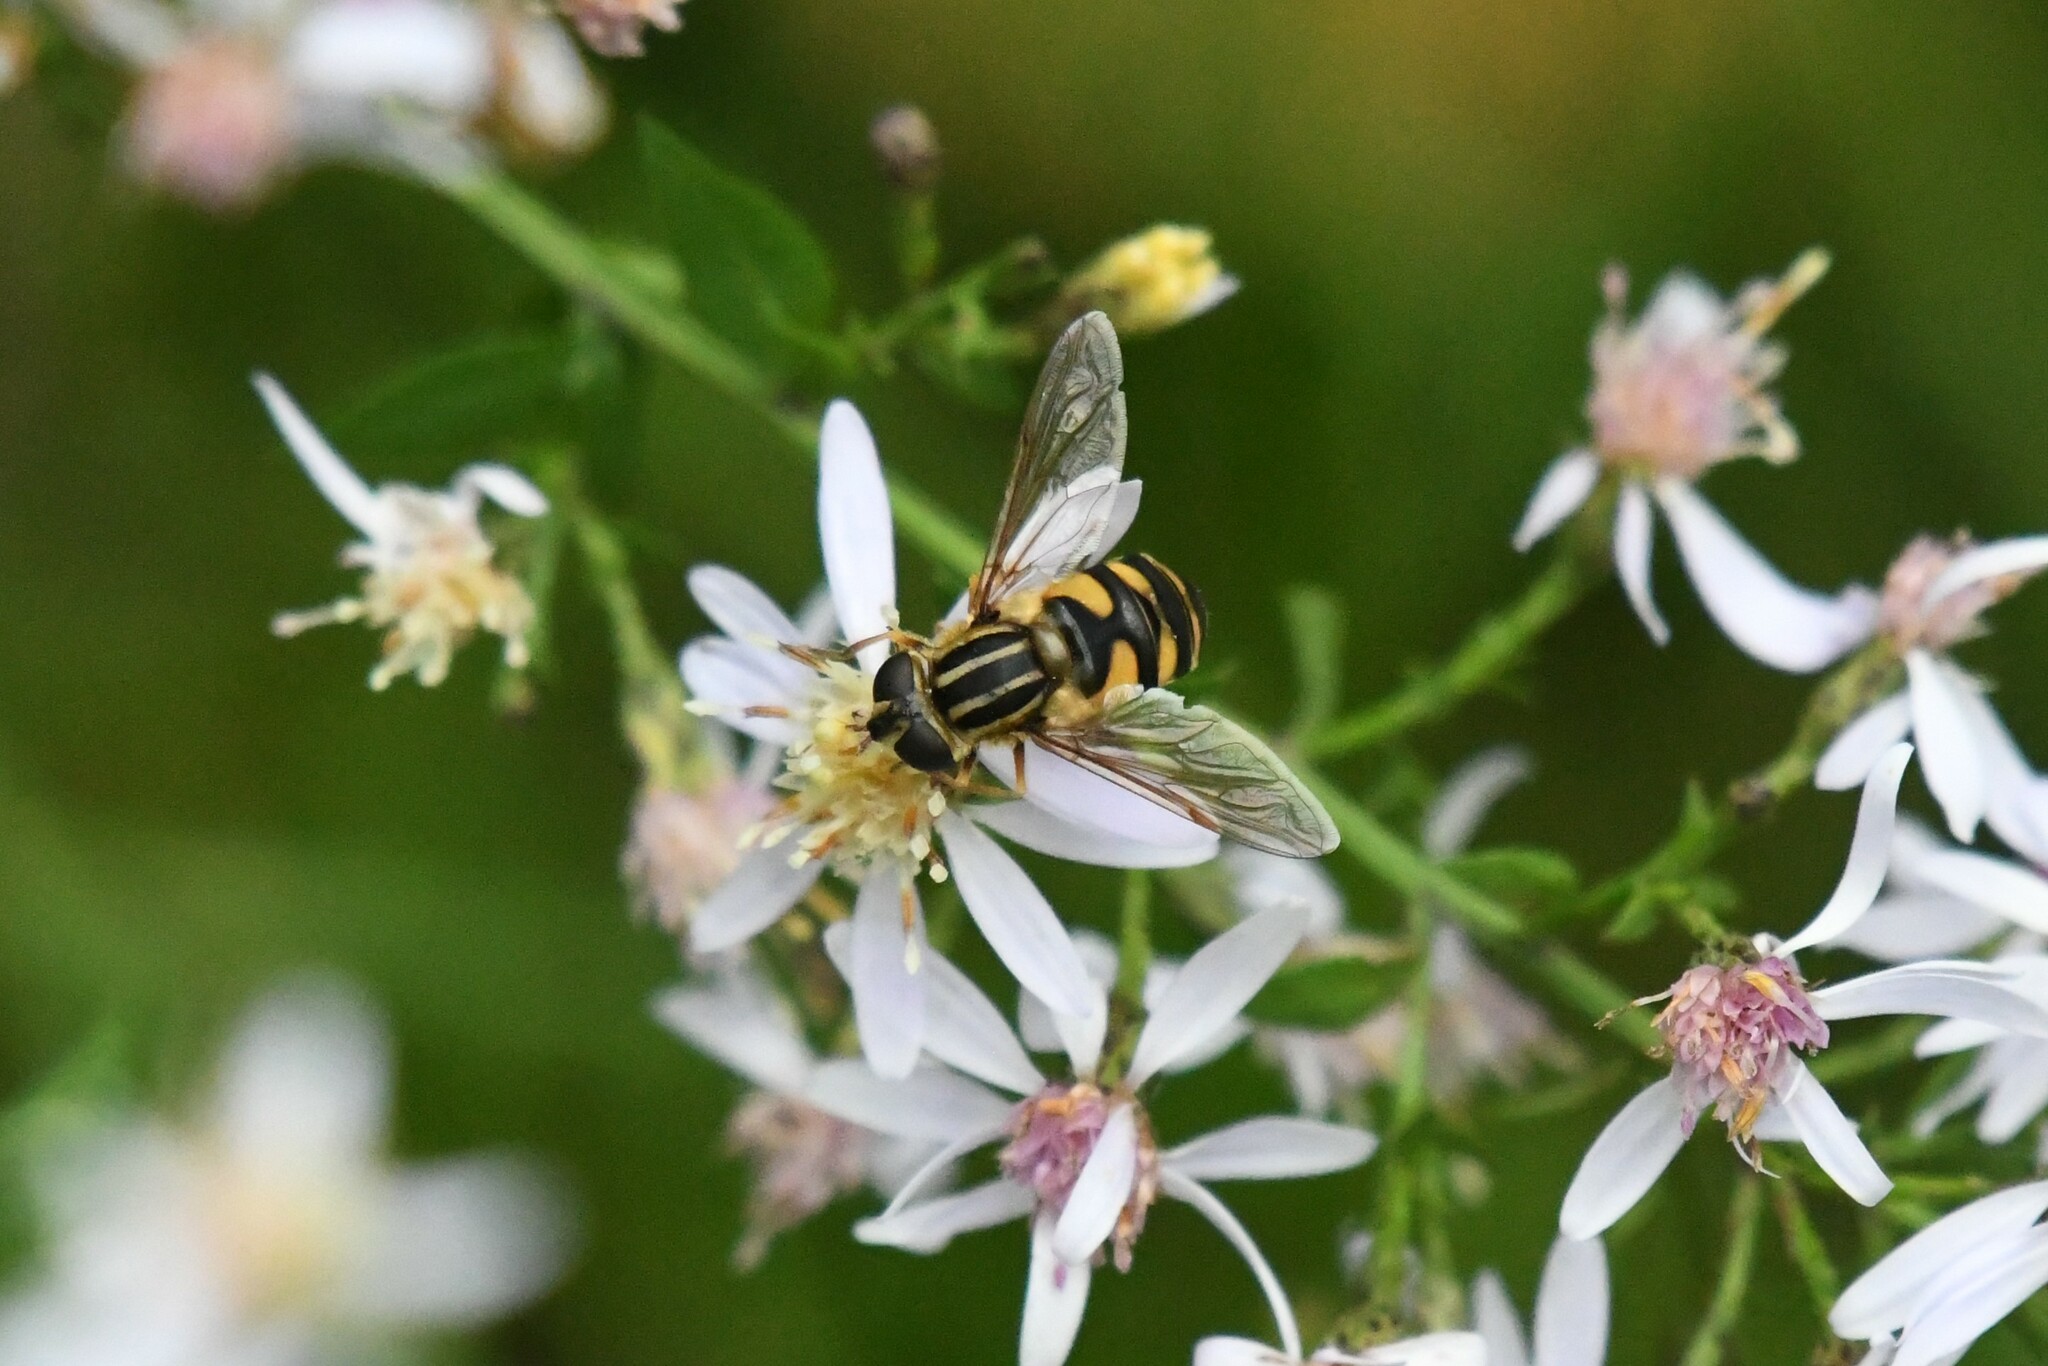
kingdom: Animalia
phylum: Arthropoda
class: Insecta
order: Diptera
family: Syrphidae
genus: Helophilus
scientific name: Helophilus fasciatus
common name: Narrow-headed marsh fly
